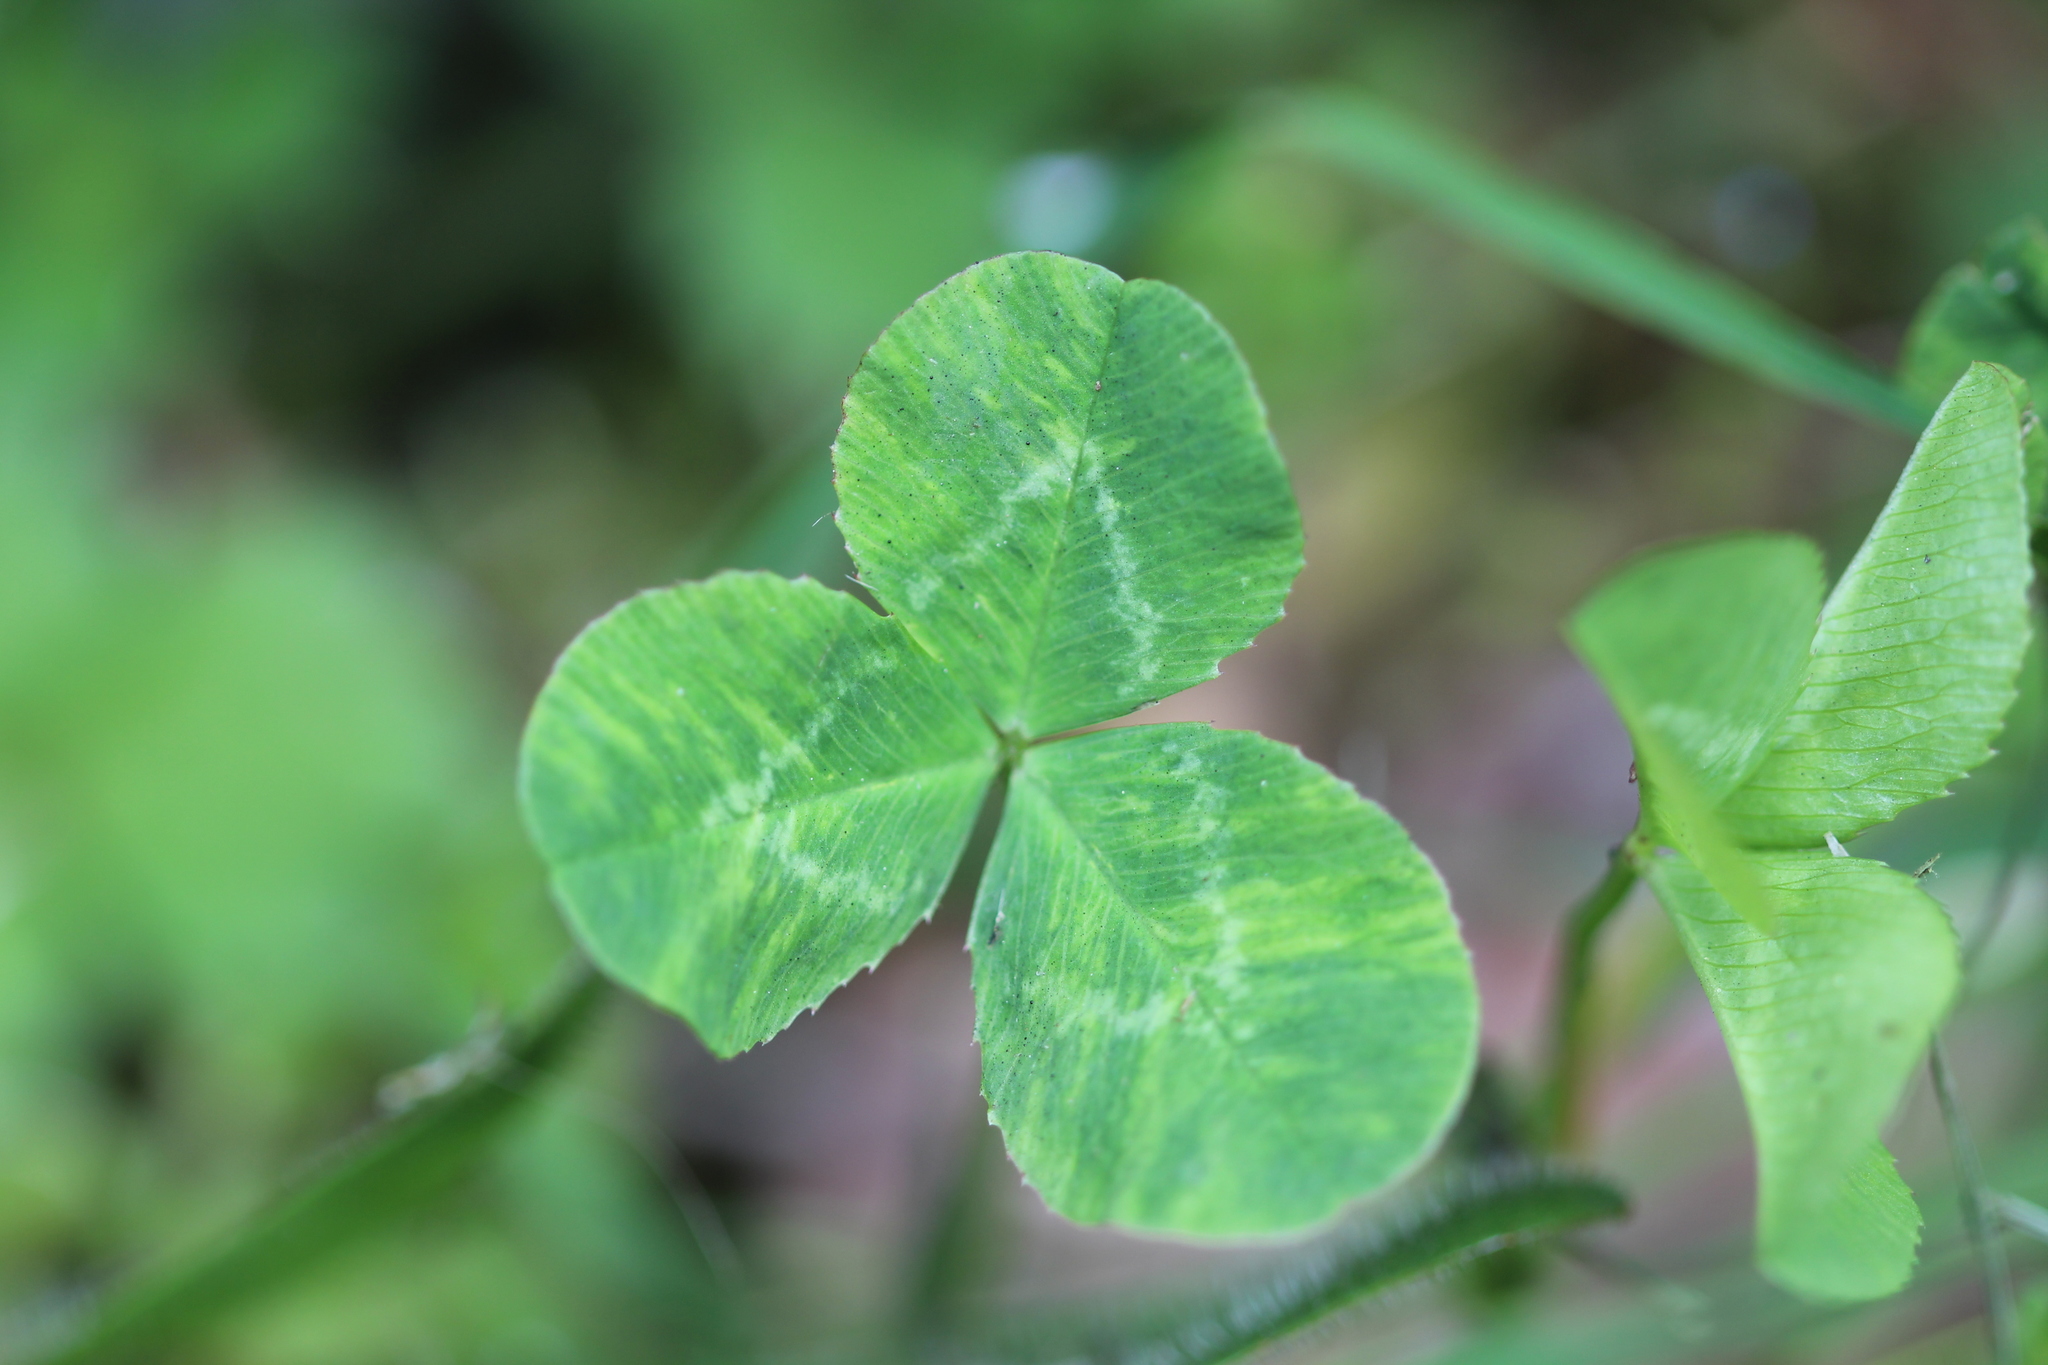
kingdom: Plantae
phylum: Tracheophyta
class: Magnoliopsida
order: Fabales
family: Fabaceae
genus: Trifolium
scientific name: Trifolium repens
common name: White clover
